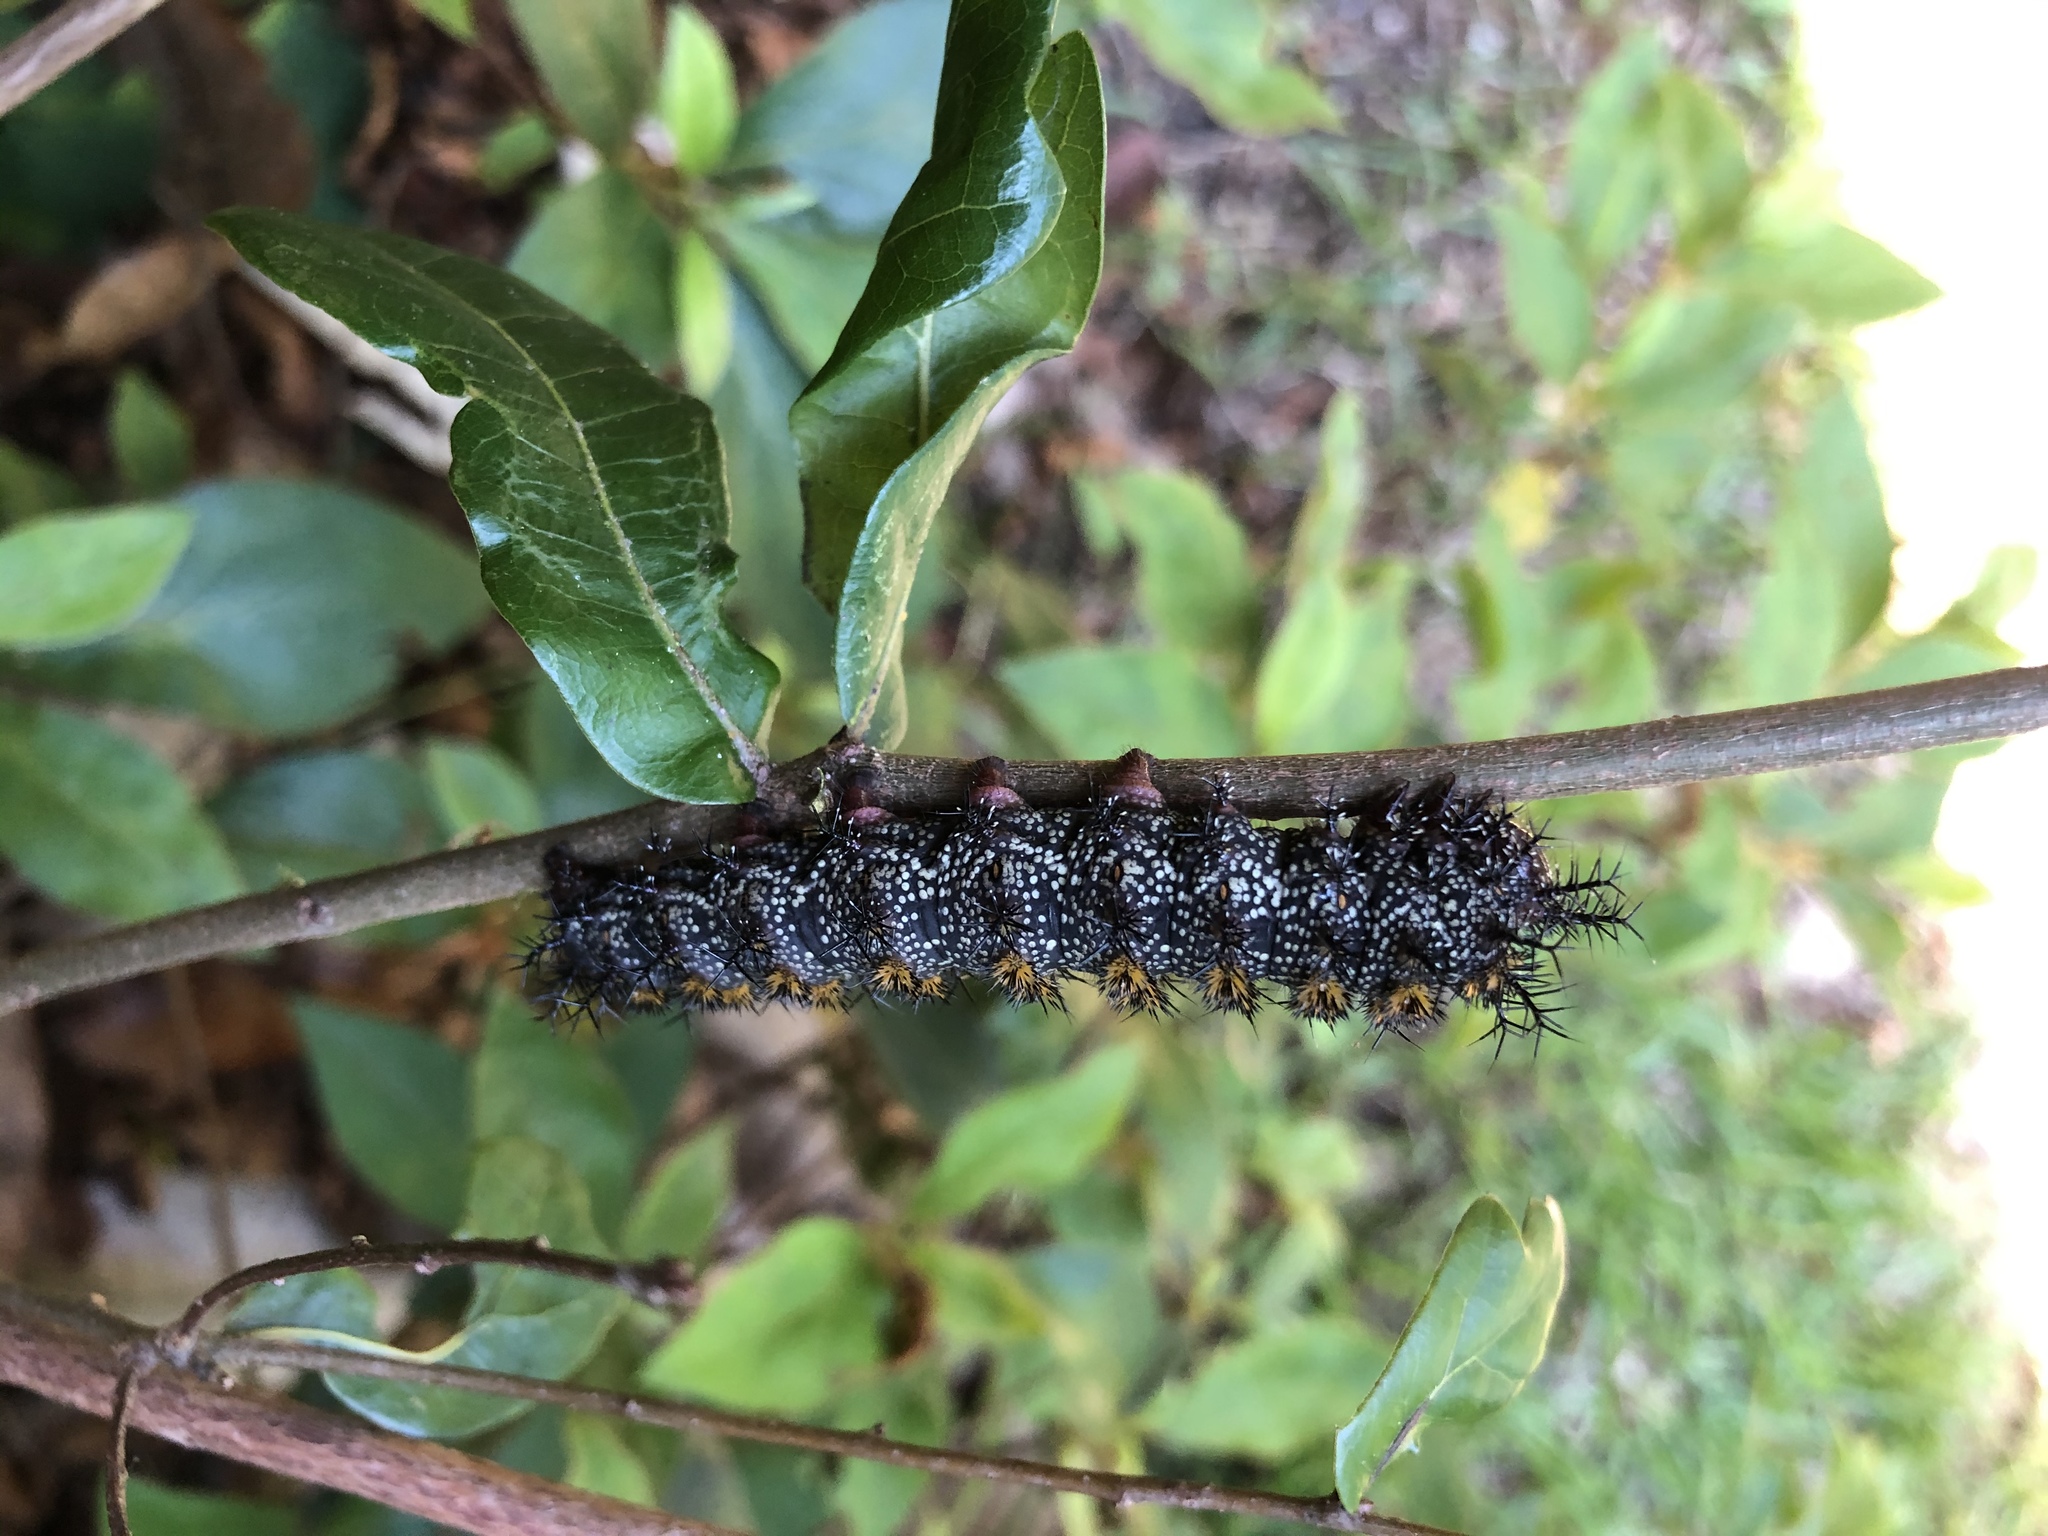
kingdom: Animalia
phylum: Arthropoda
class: Insecta
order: Lepidoptera
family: Saturniidae
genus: Hemileuca
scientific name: Hemileuca maia
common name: Eastern buckmoth
